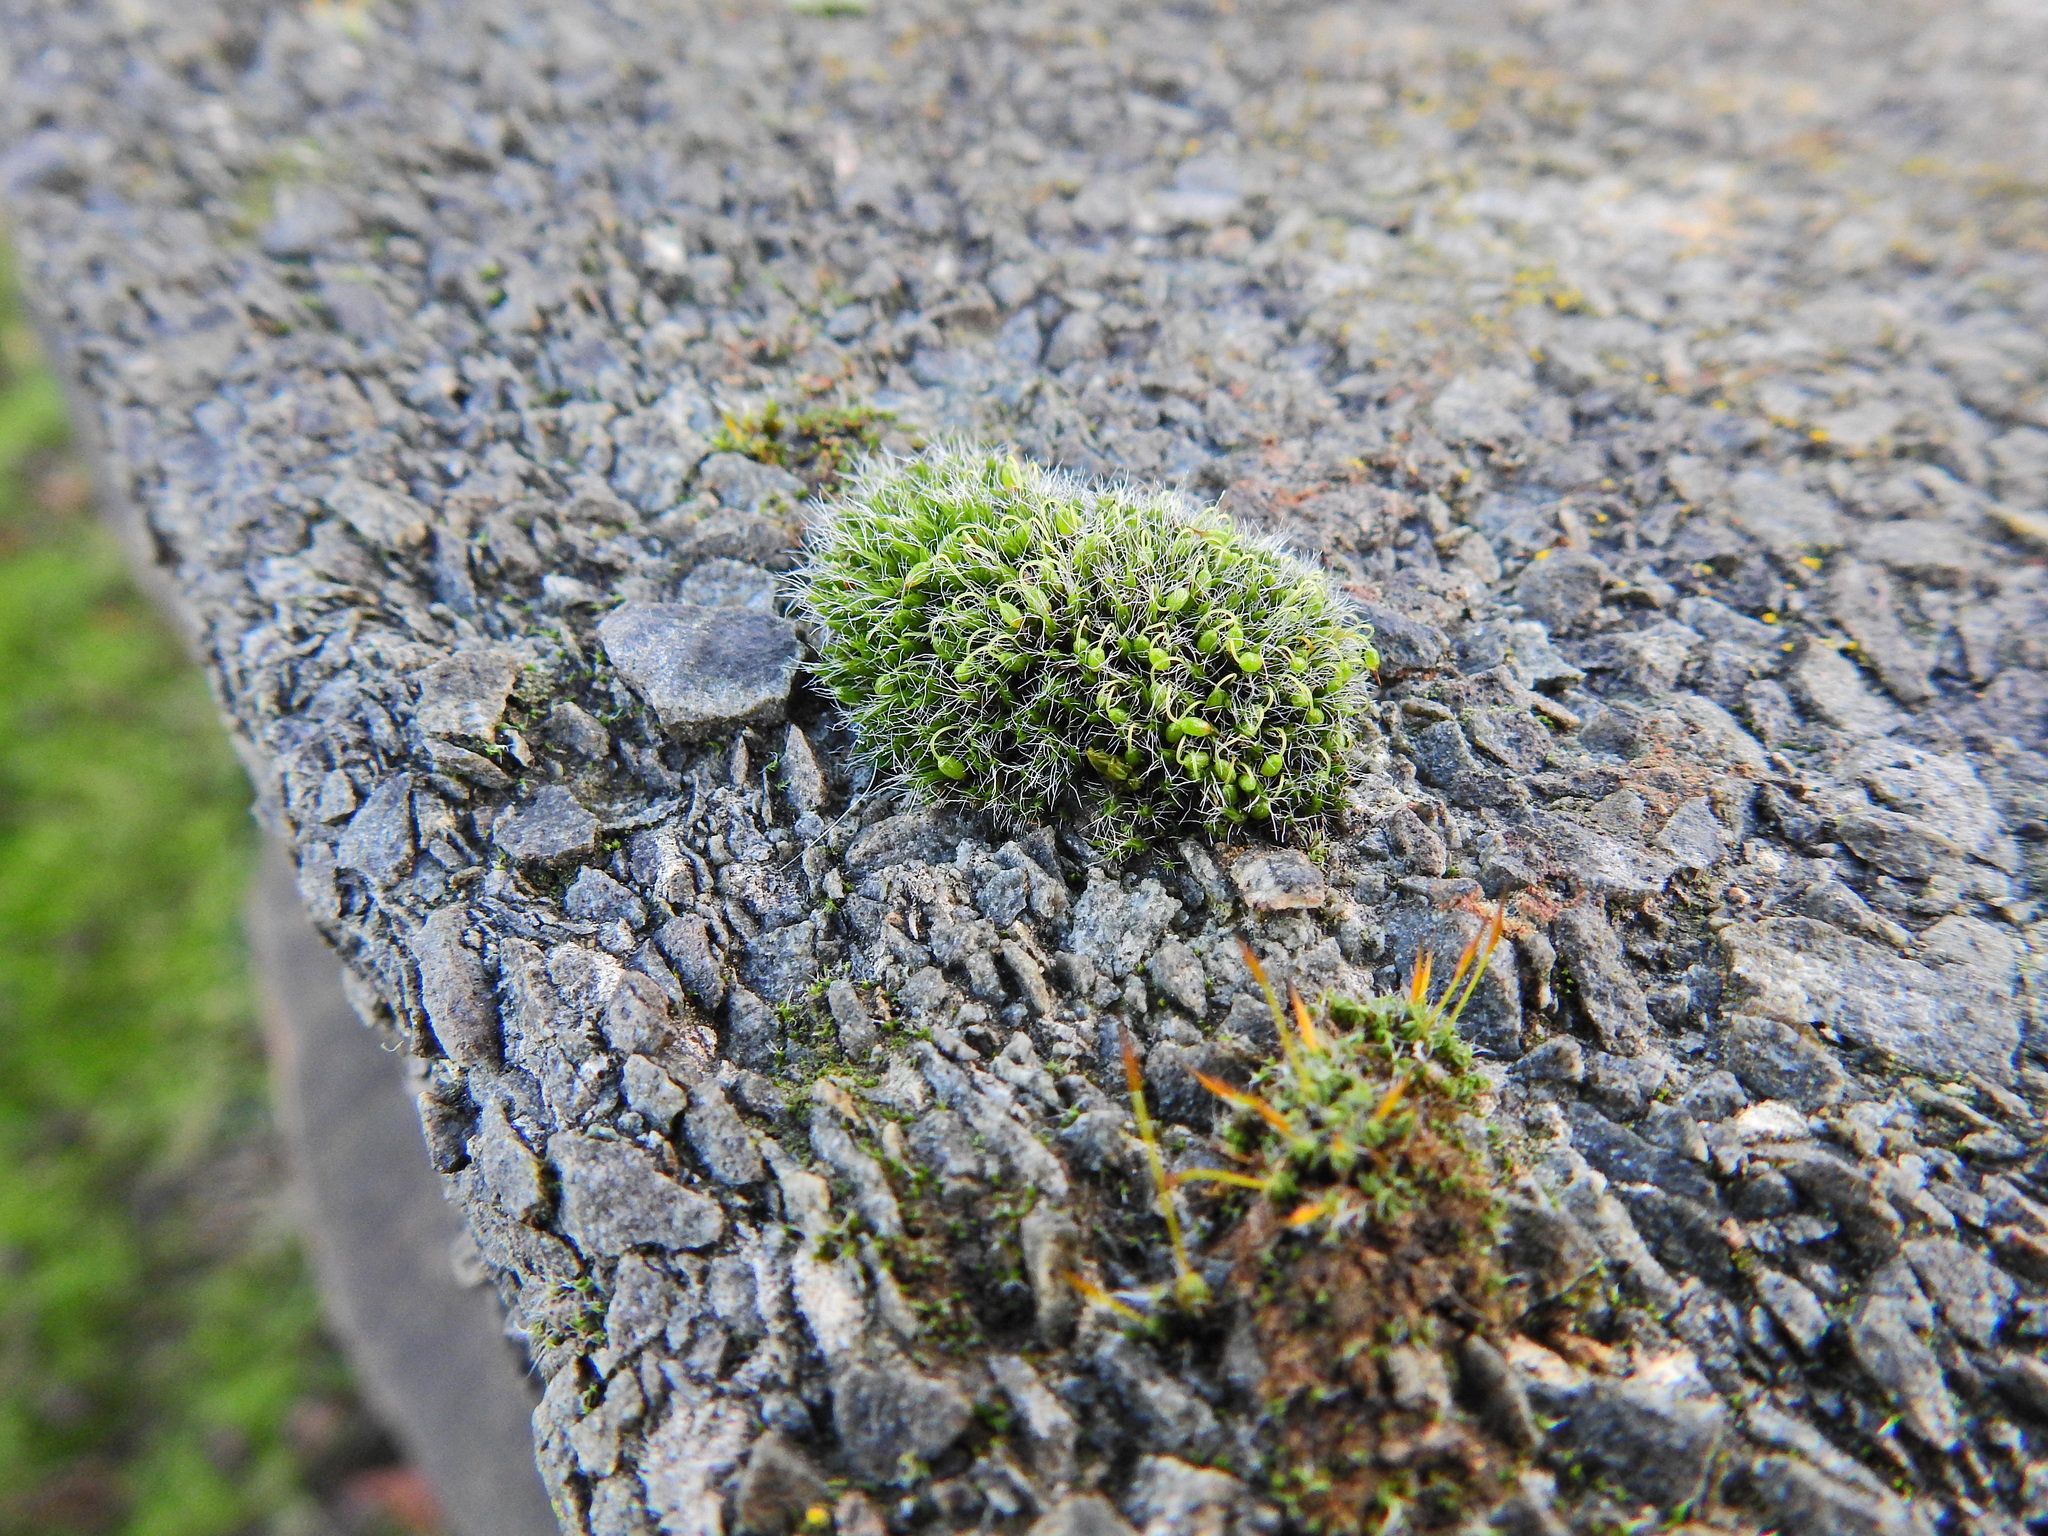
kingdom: Plantae
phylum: Bryophyta
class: Bryopsida
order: Grimmiales
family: Grimmiaceae
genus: Grimmia
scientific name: Grimmia pulvinata
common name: Grey-cushioned grimmia
